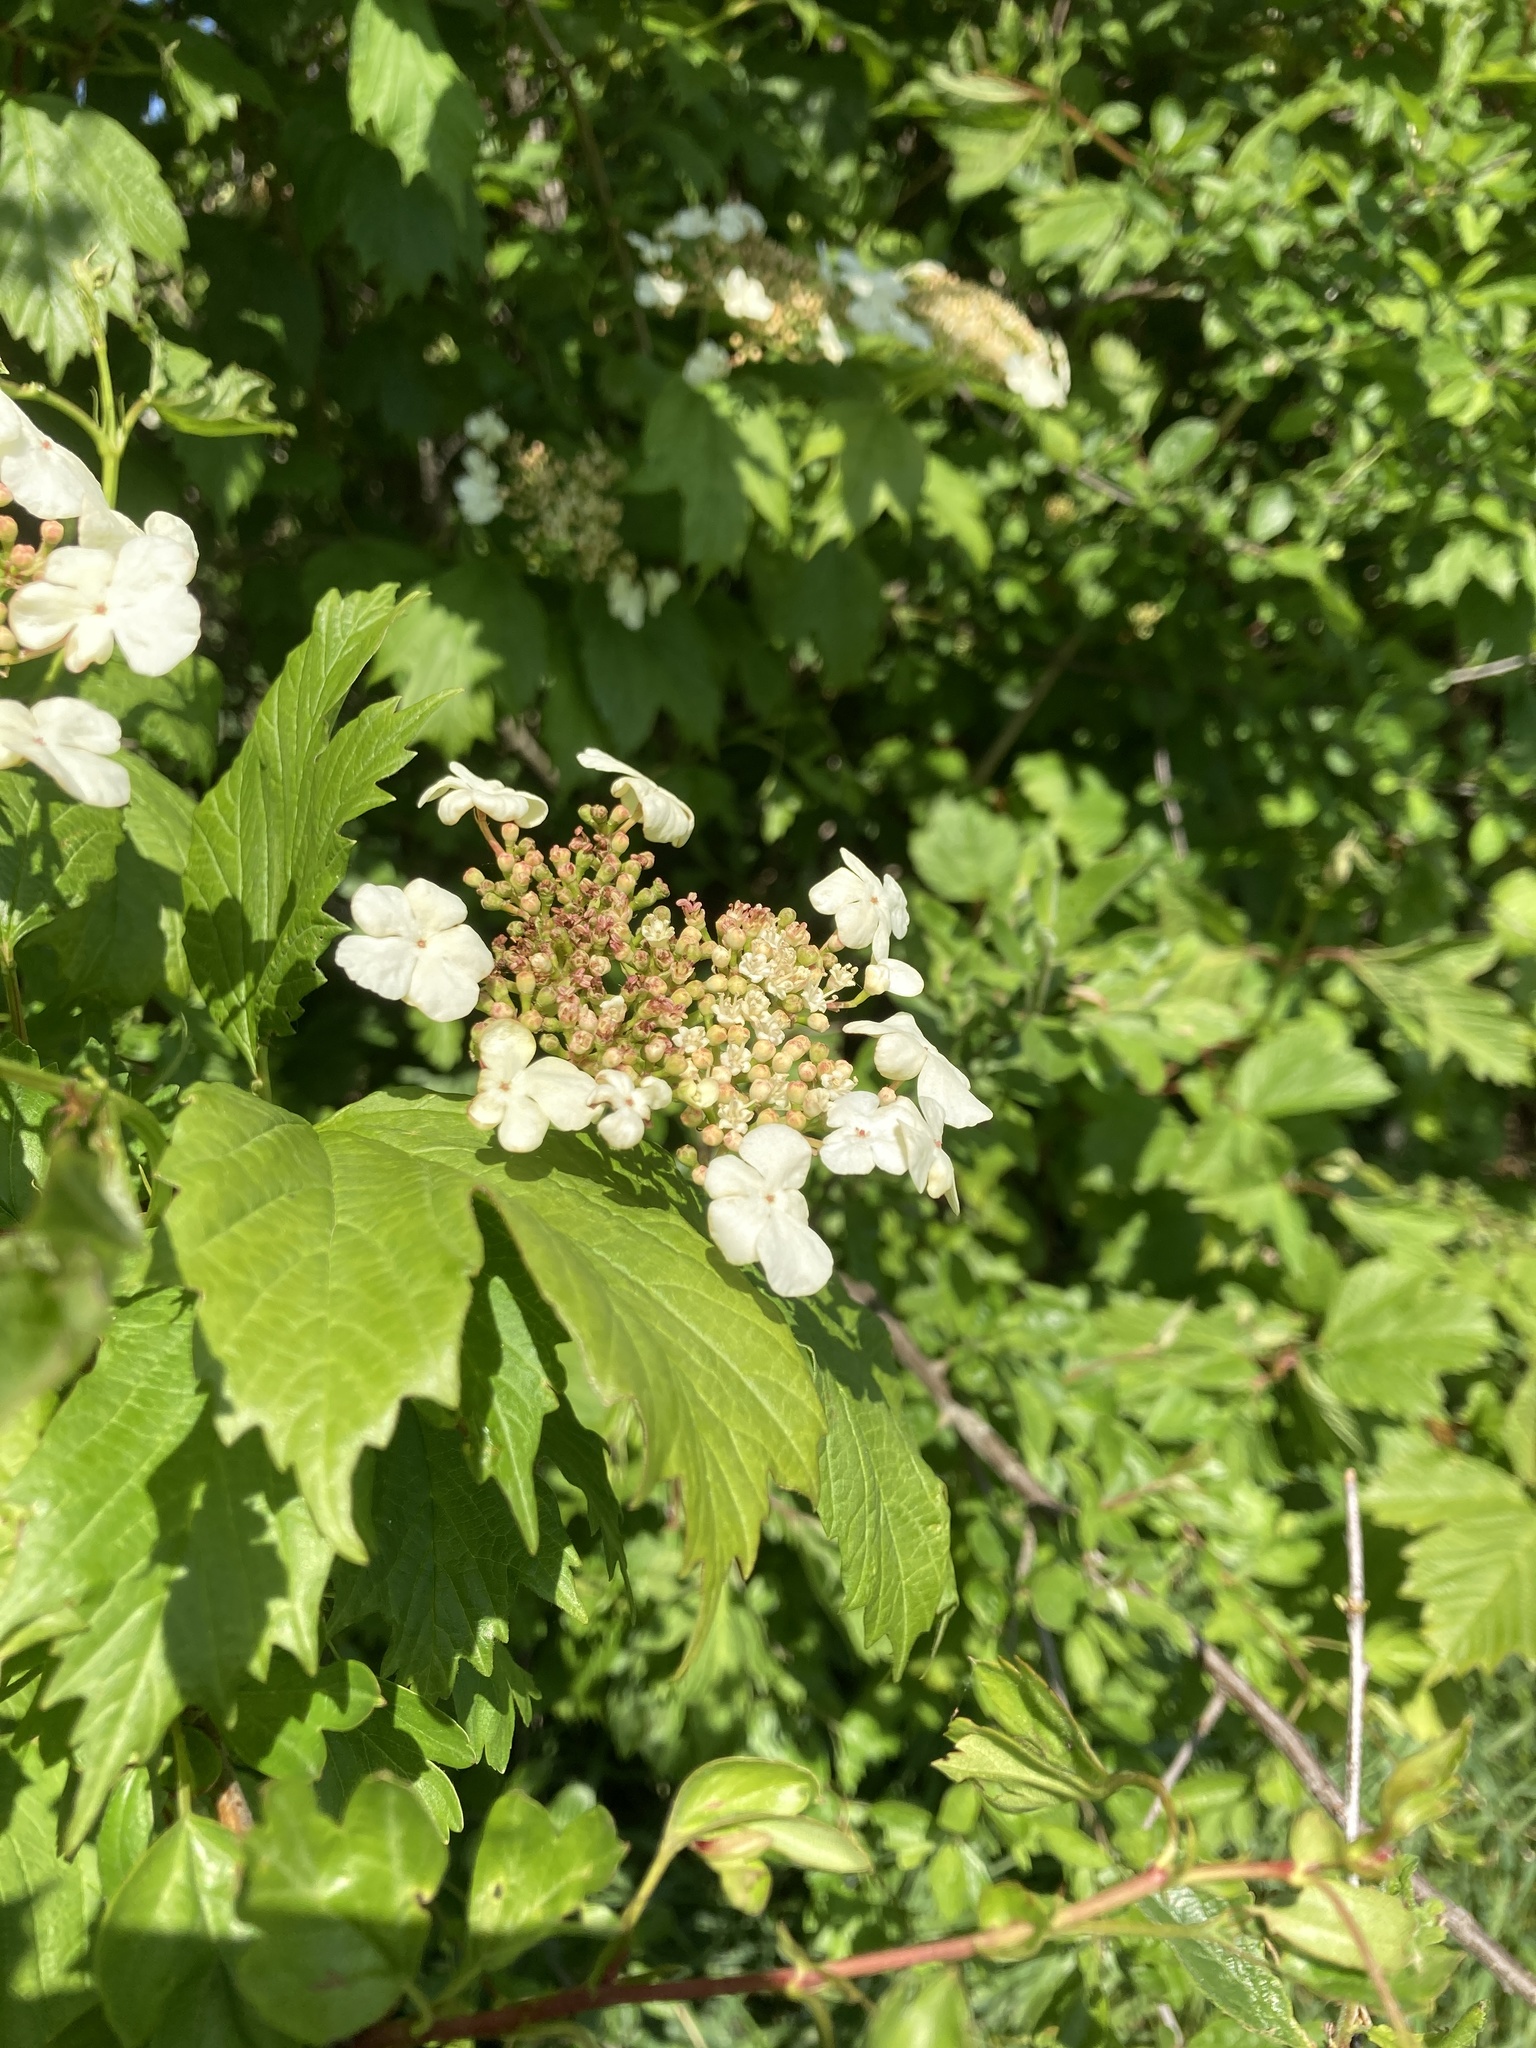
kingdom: Plantae
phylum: Tracheophyta
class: Magnoliopsida
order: Dipsacales
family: Viburnaceae
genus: Viburnum
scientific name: Viburnum opulus
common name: Guelder-rose
